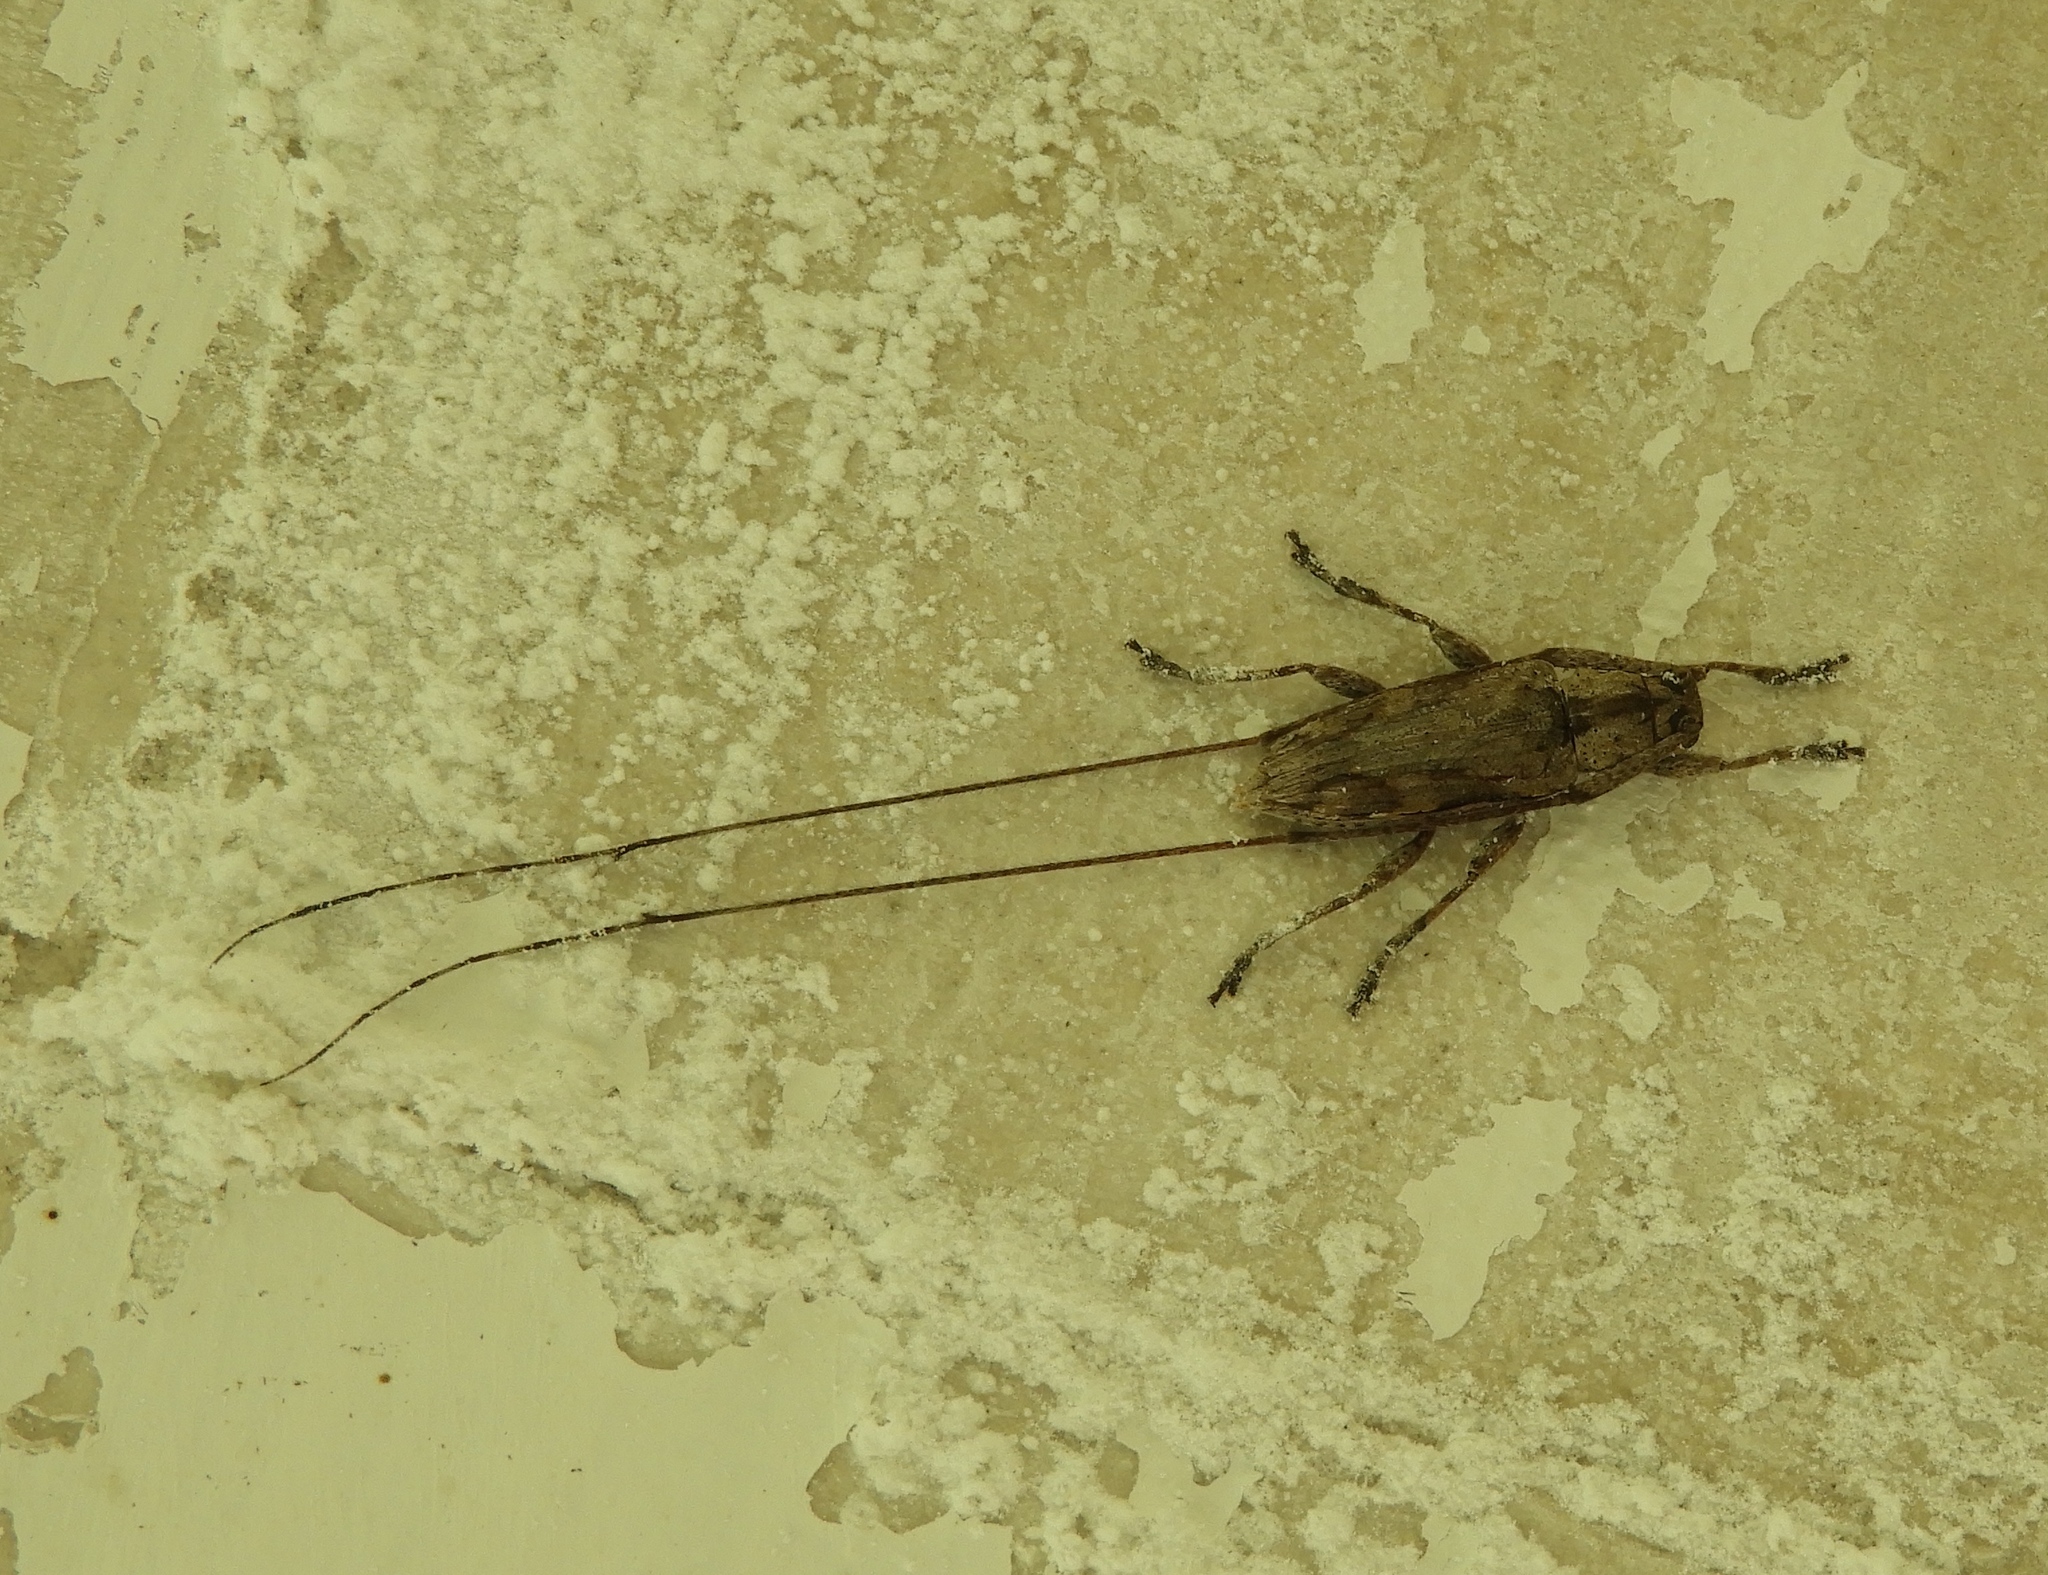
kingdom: Animalia
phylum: Arthropoda
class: Insecta
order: Coleoptera
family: Cerambycidae
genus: Mecotetartus
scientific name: Mecotetartus antennatus
